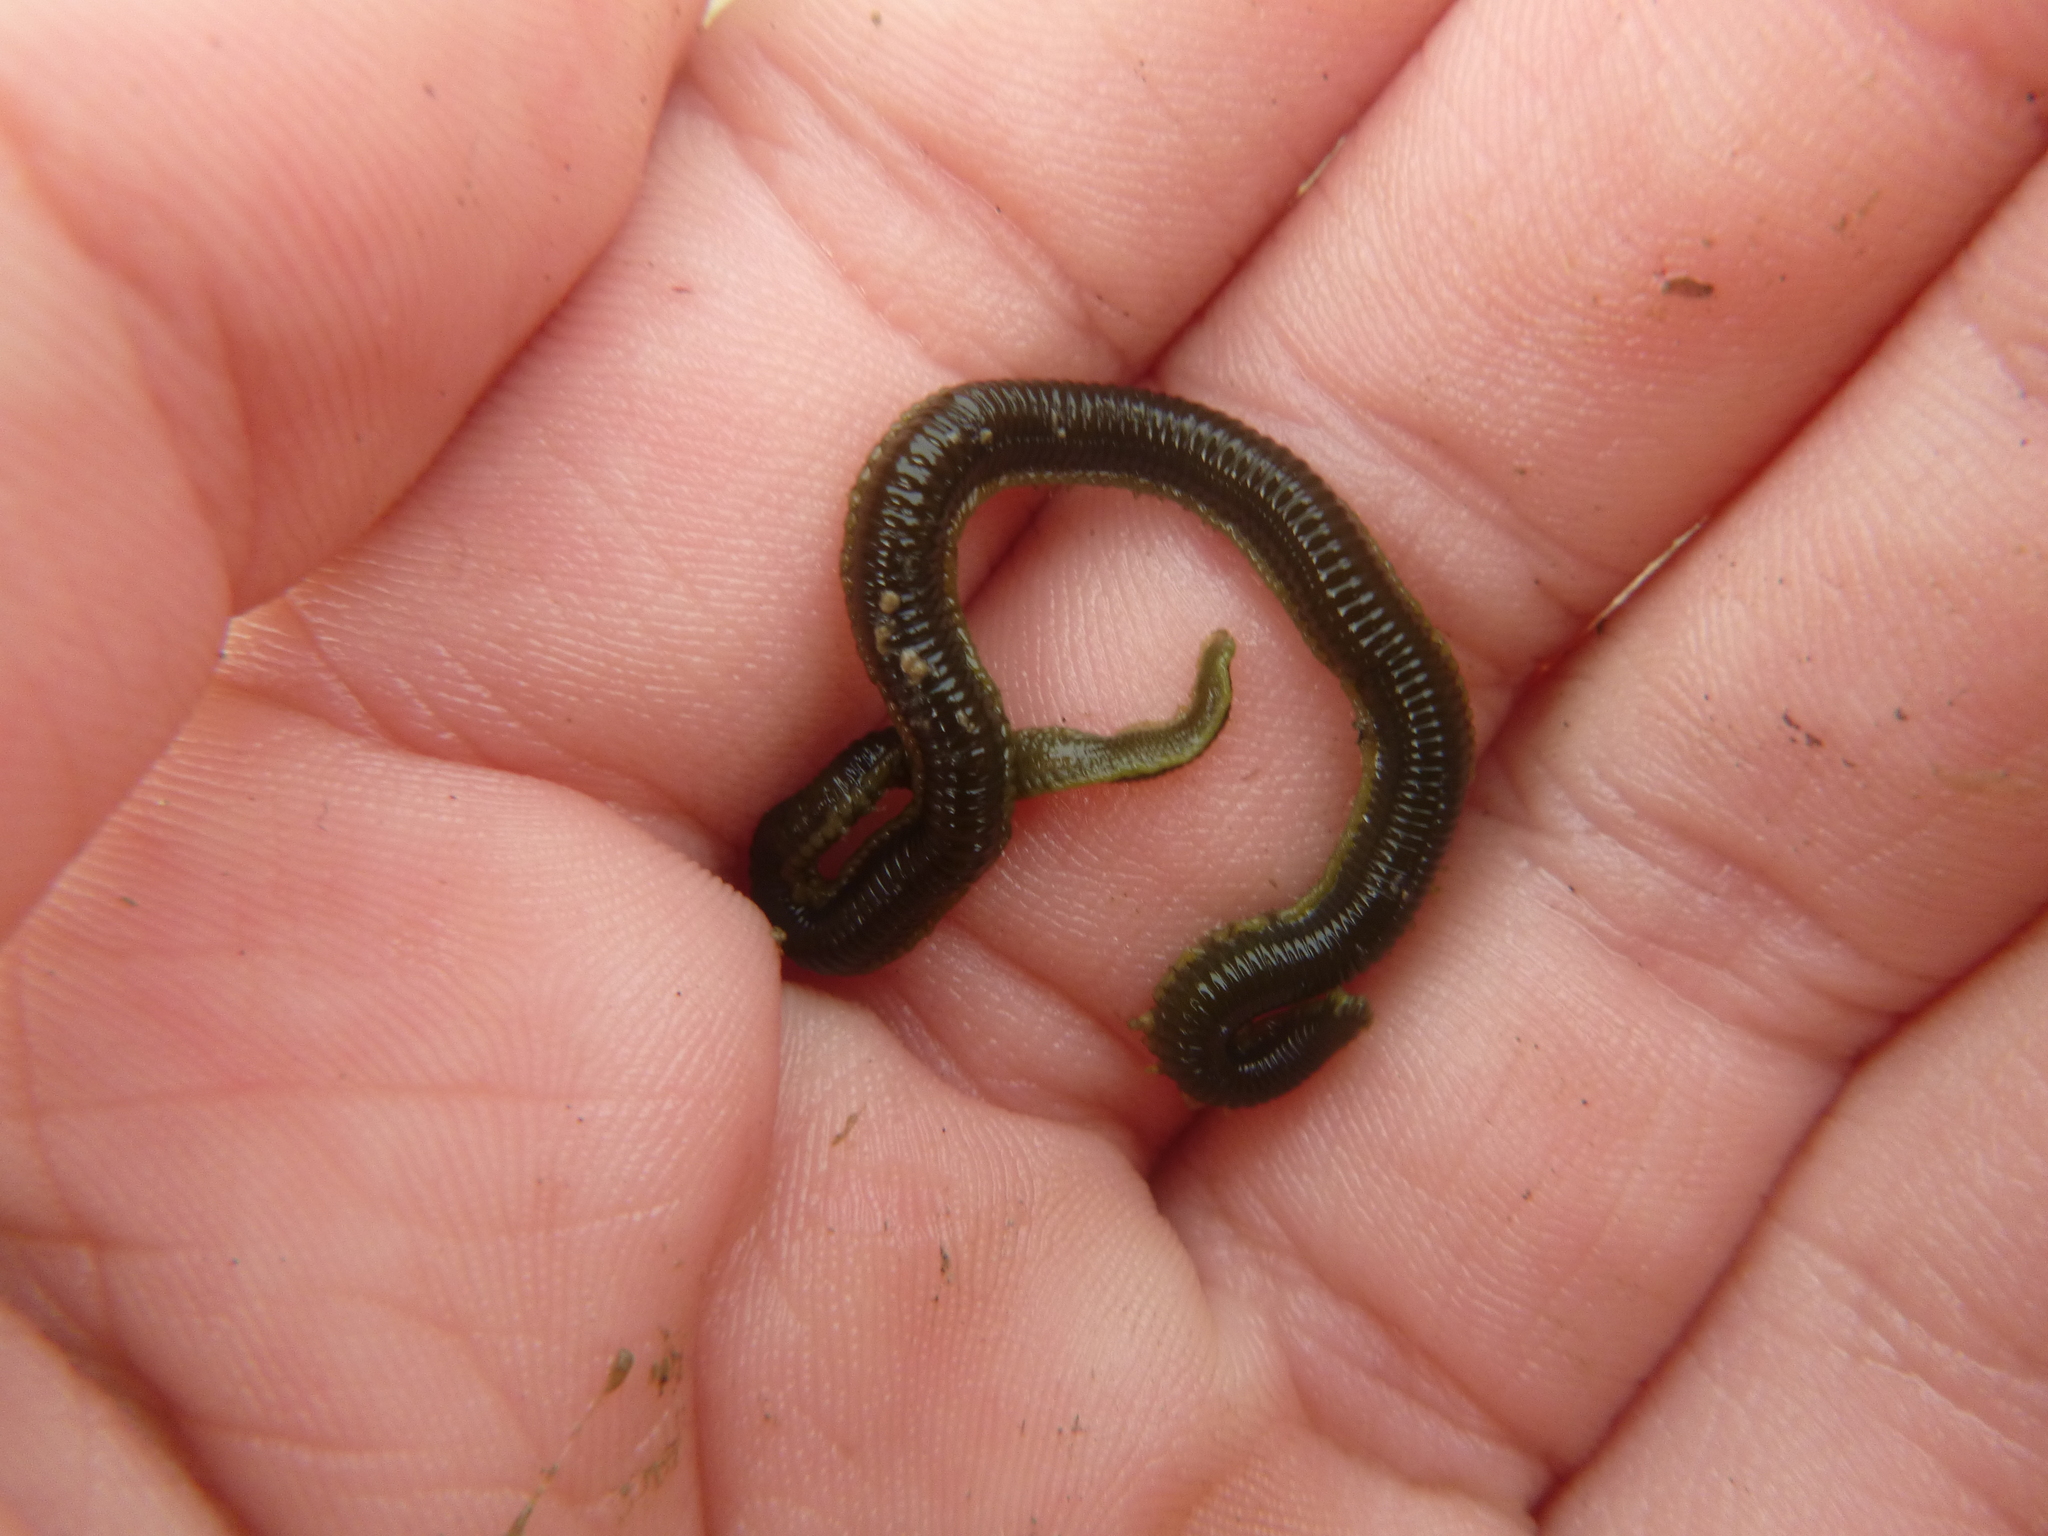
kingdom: Animalia
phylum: Annelida
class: Polychaeta
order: Phyllodocida
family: Phyllodocidae
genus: Eulalia
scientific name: Eulalia microphylla
